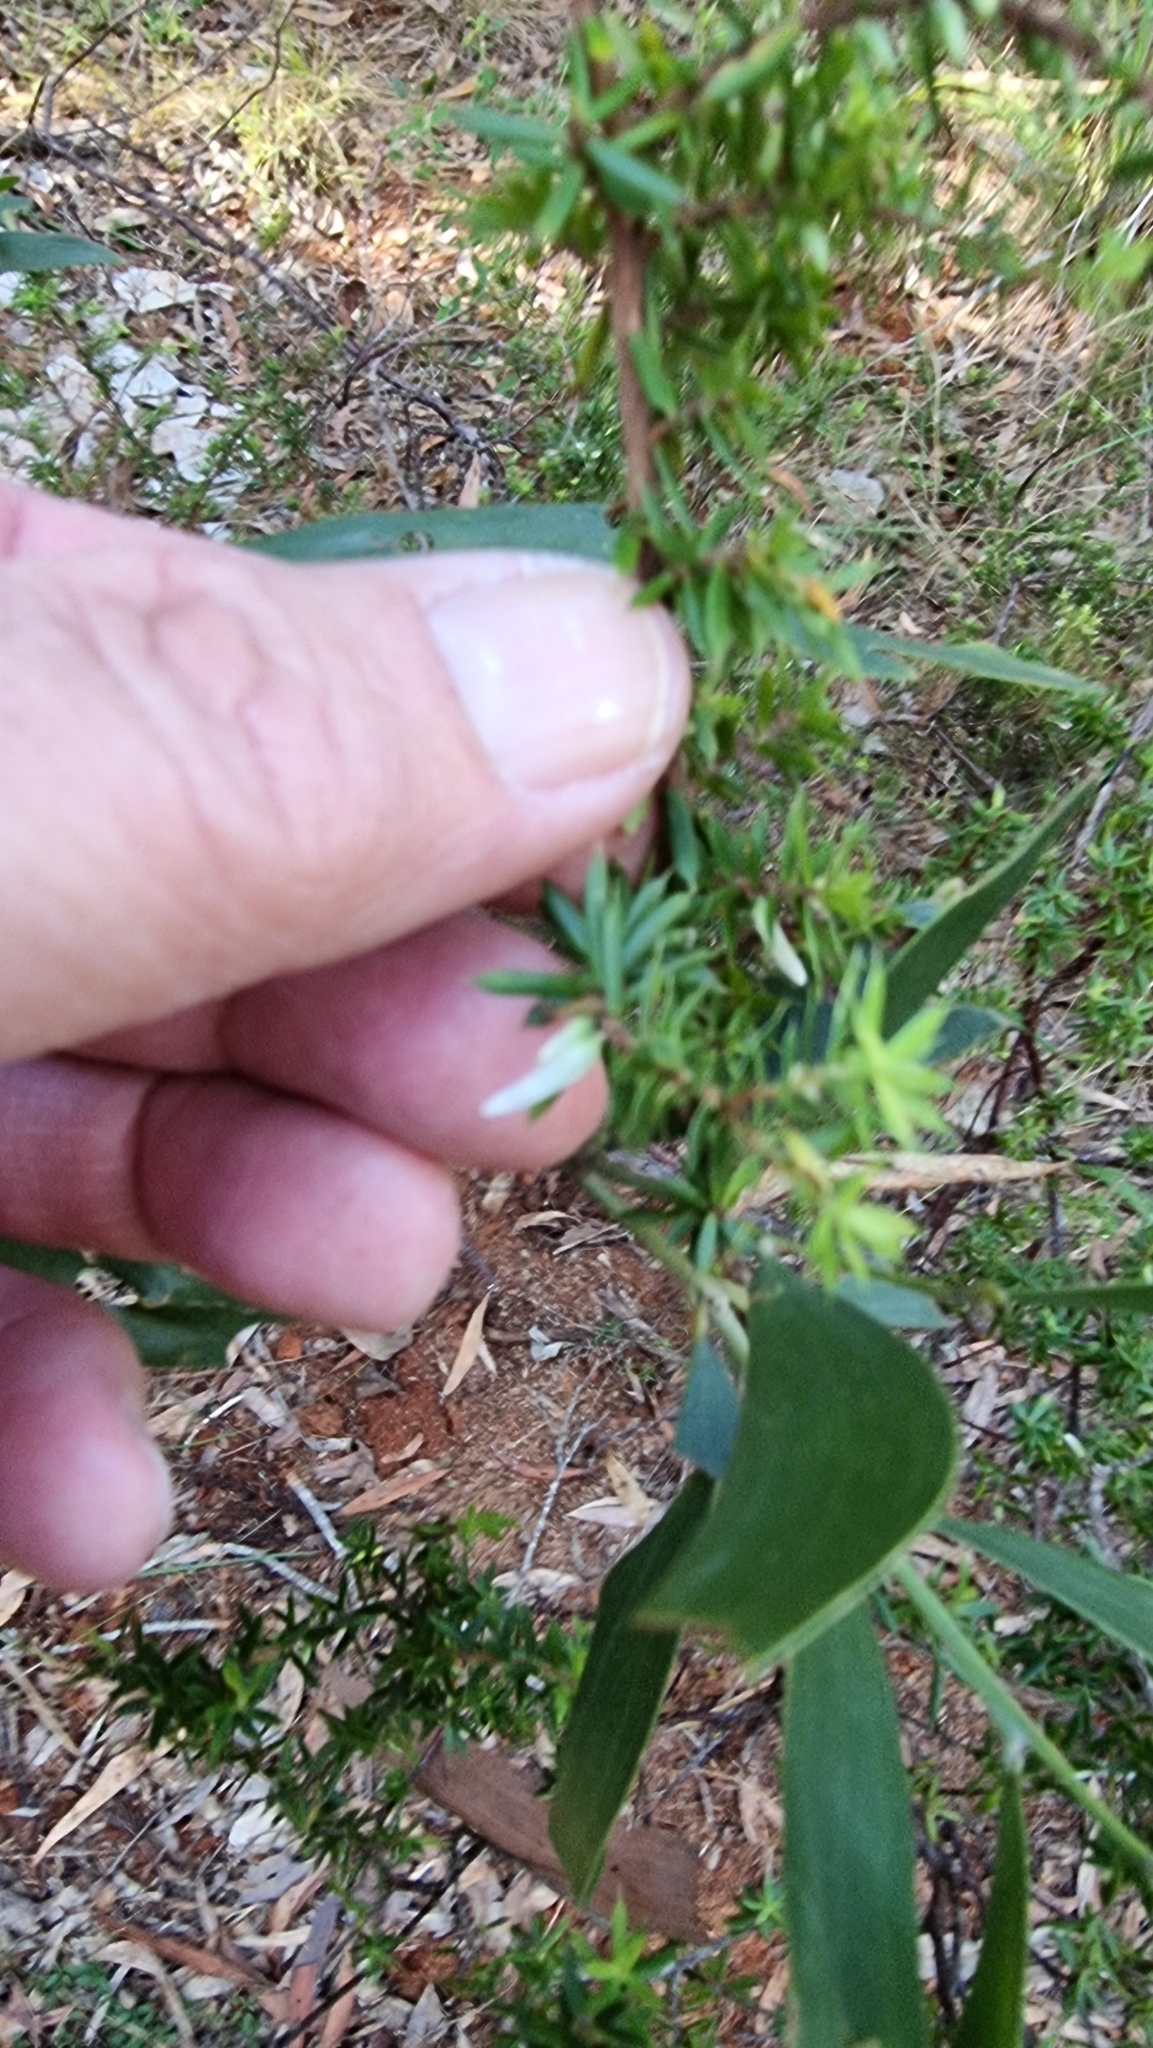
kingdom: Plantae
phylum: Tracheophyta
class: Magnoliopsida
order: Ericales
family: Ericaceae
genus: Styphelia
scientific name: Styphelia sieberi
